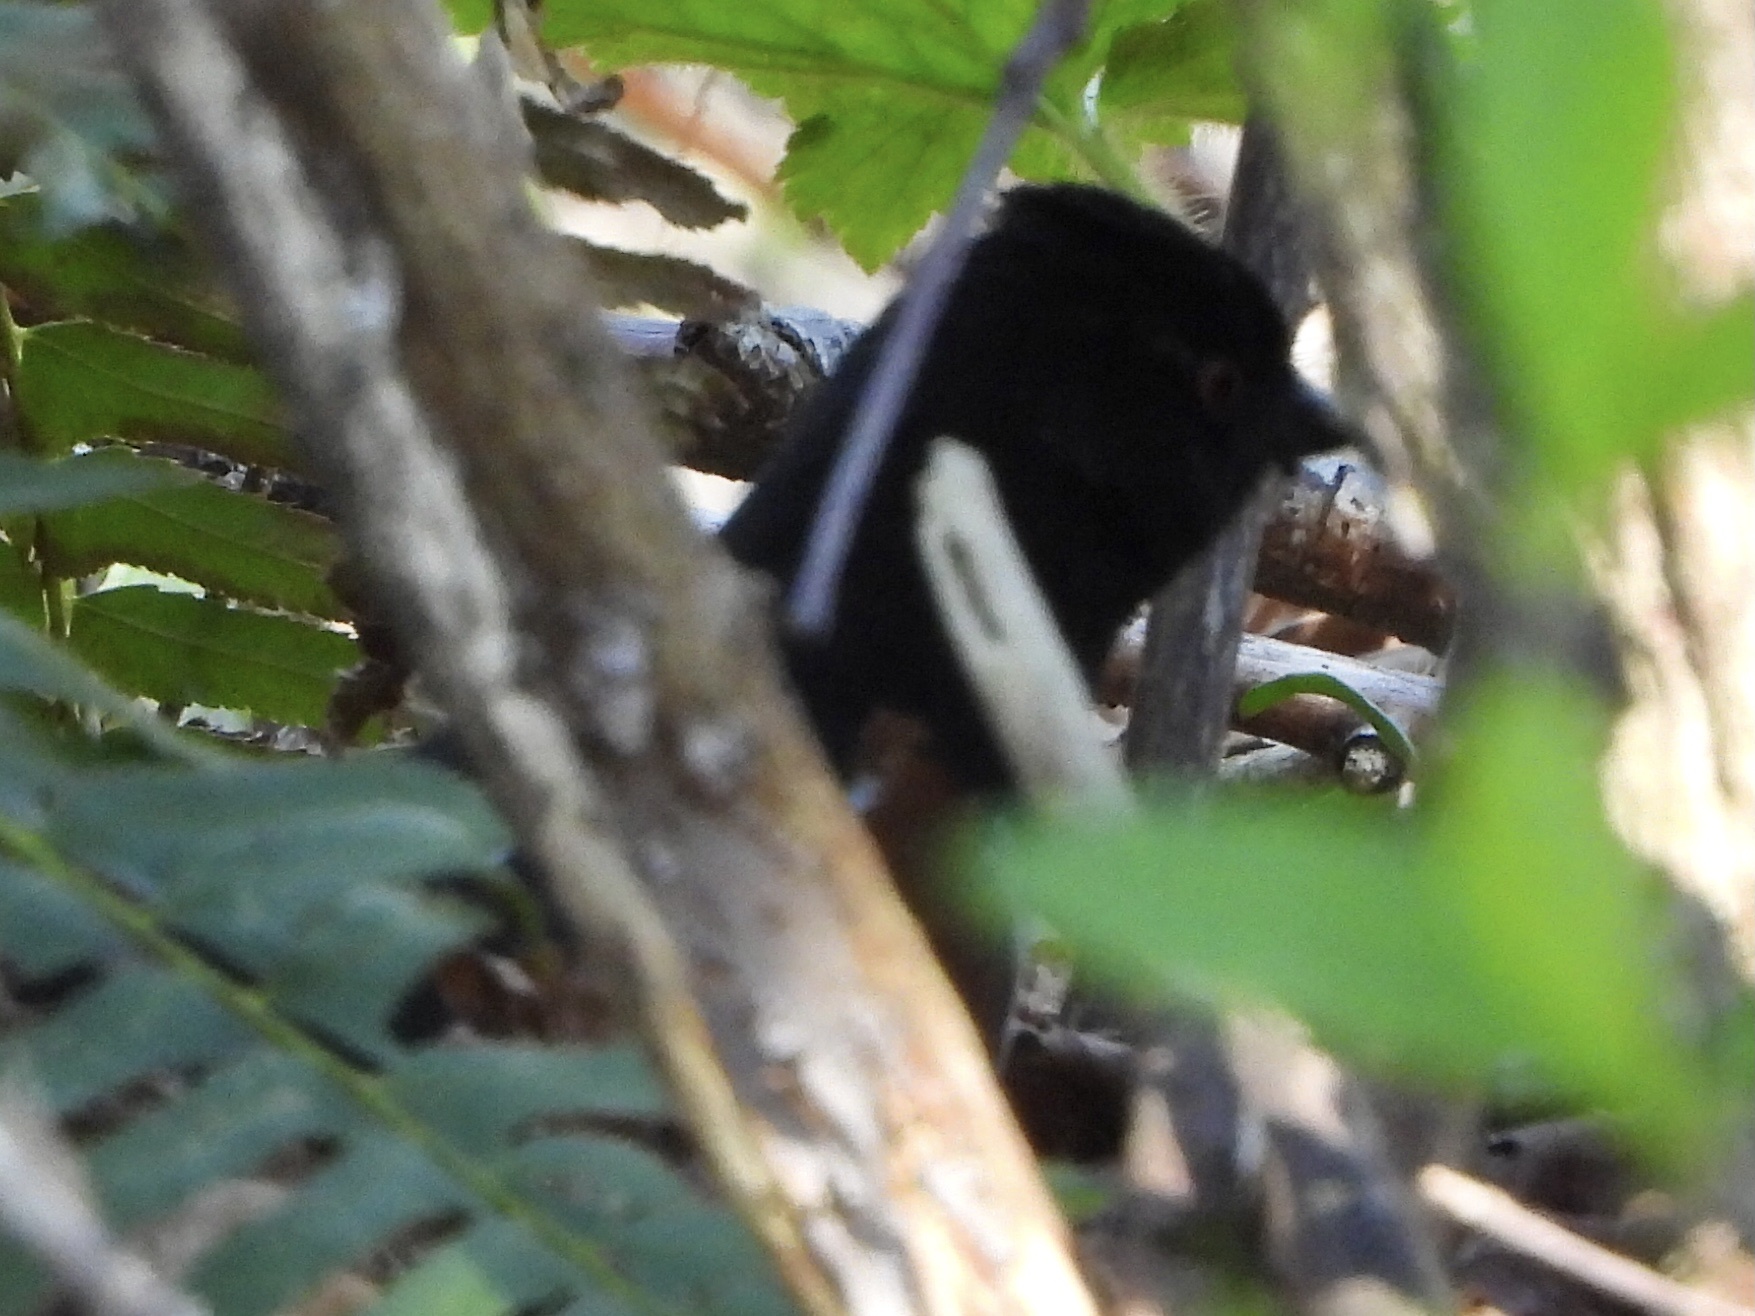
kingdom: Animalia
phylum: Chordata
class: Aves
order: Passeriformes
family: Passerellidae
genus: Pipilo
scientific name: Pipilo maculatus
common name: Spotted towhee
